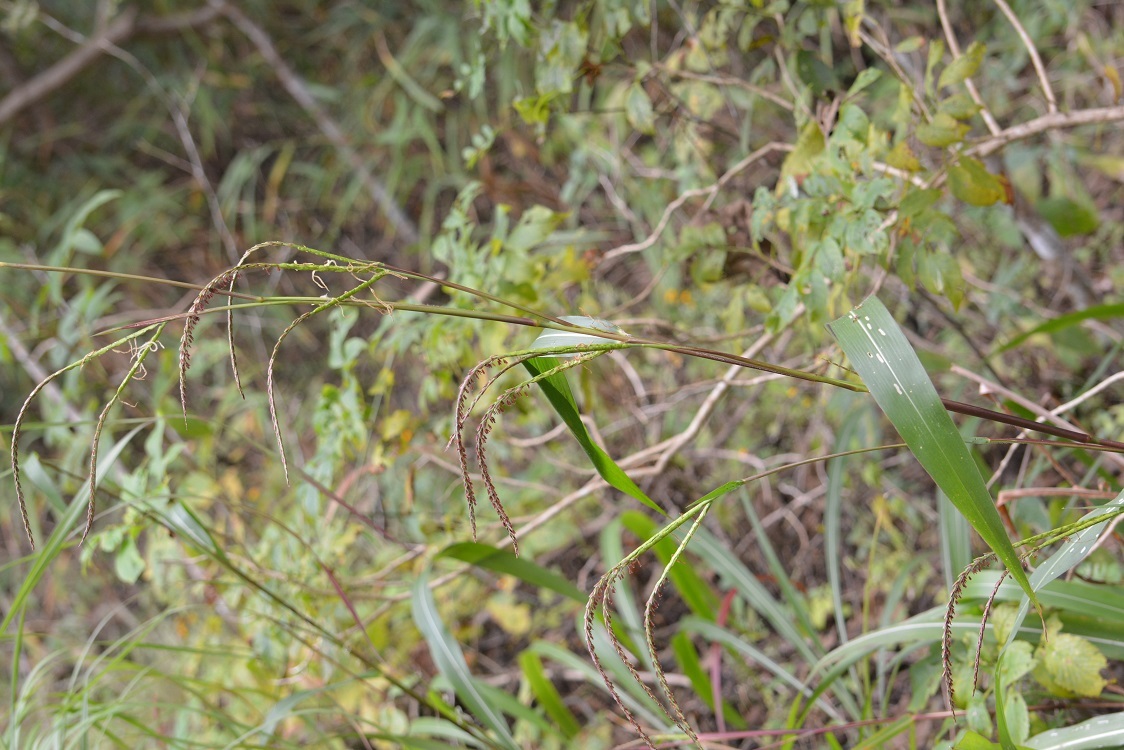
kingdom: Plantae
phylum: Tracheophyta
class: Liliopsida
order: Poales
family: Poaceae
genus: Tripsacum
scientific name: Tripsacum jalapense
